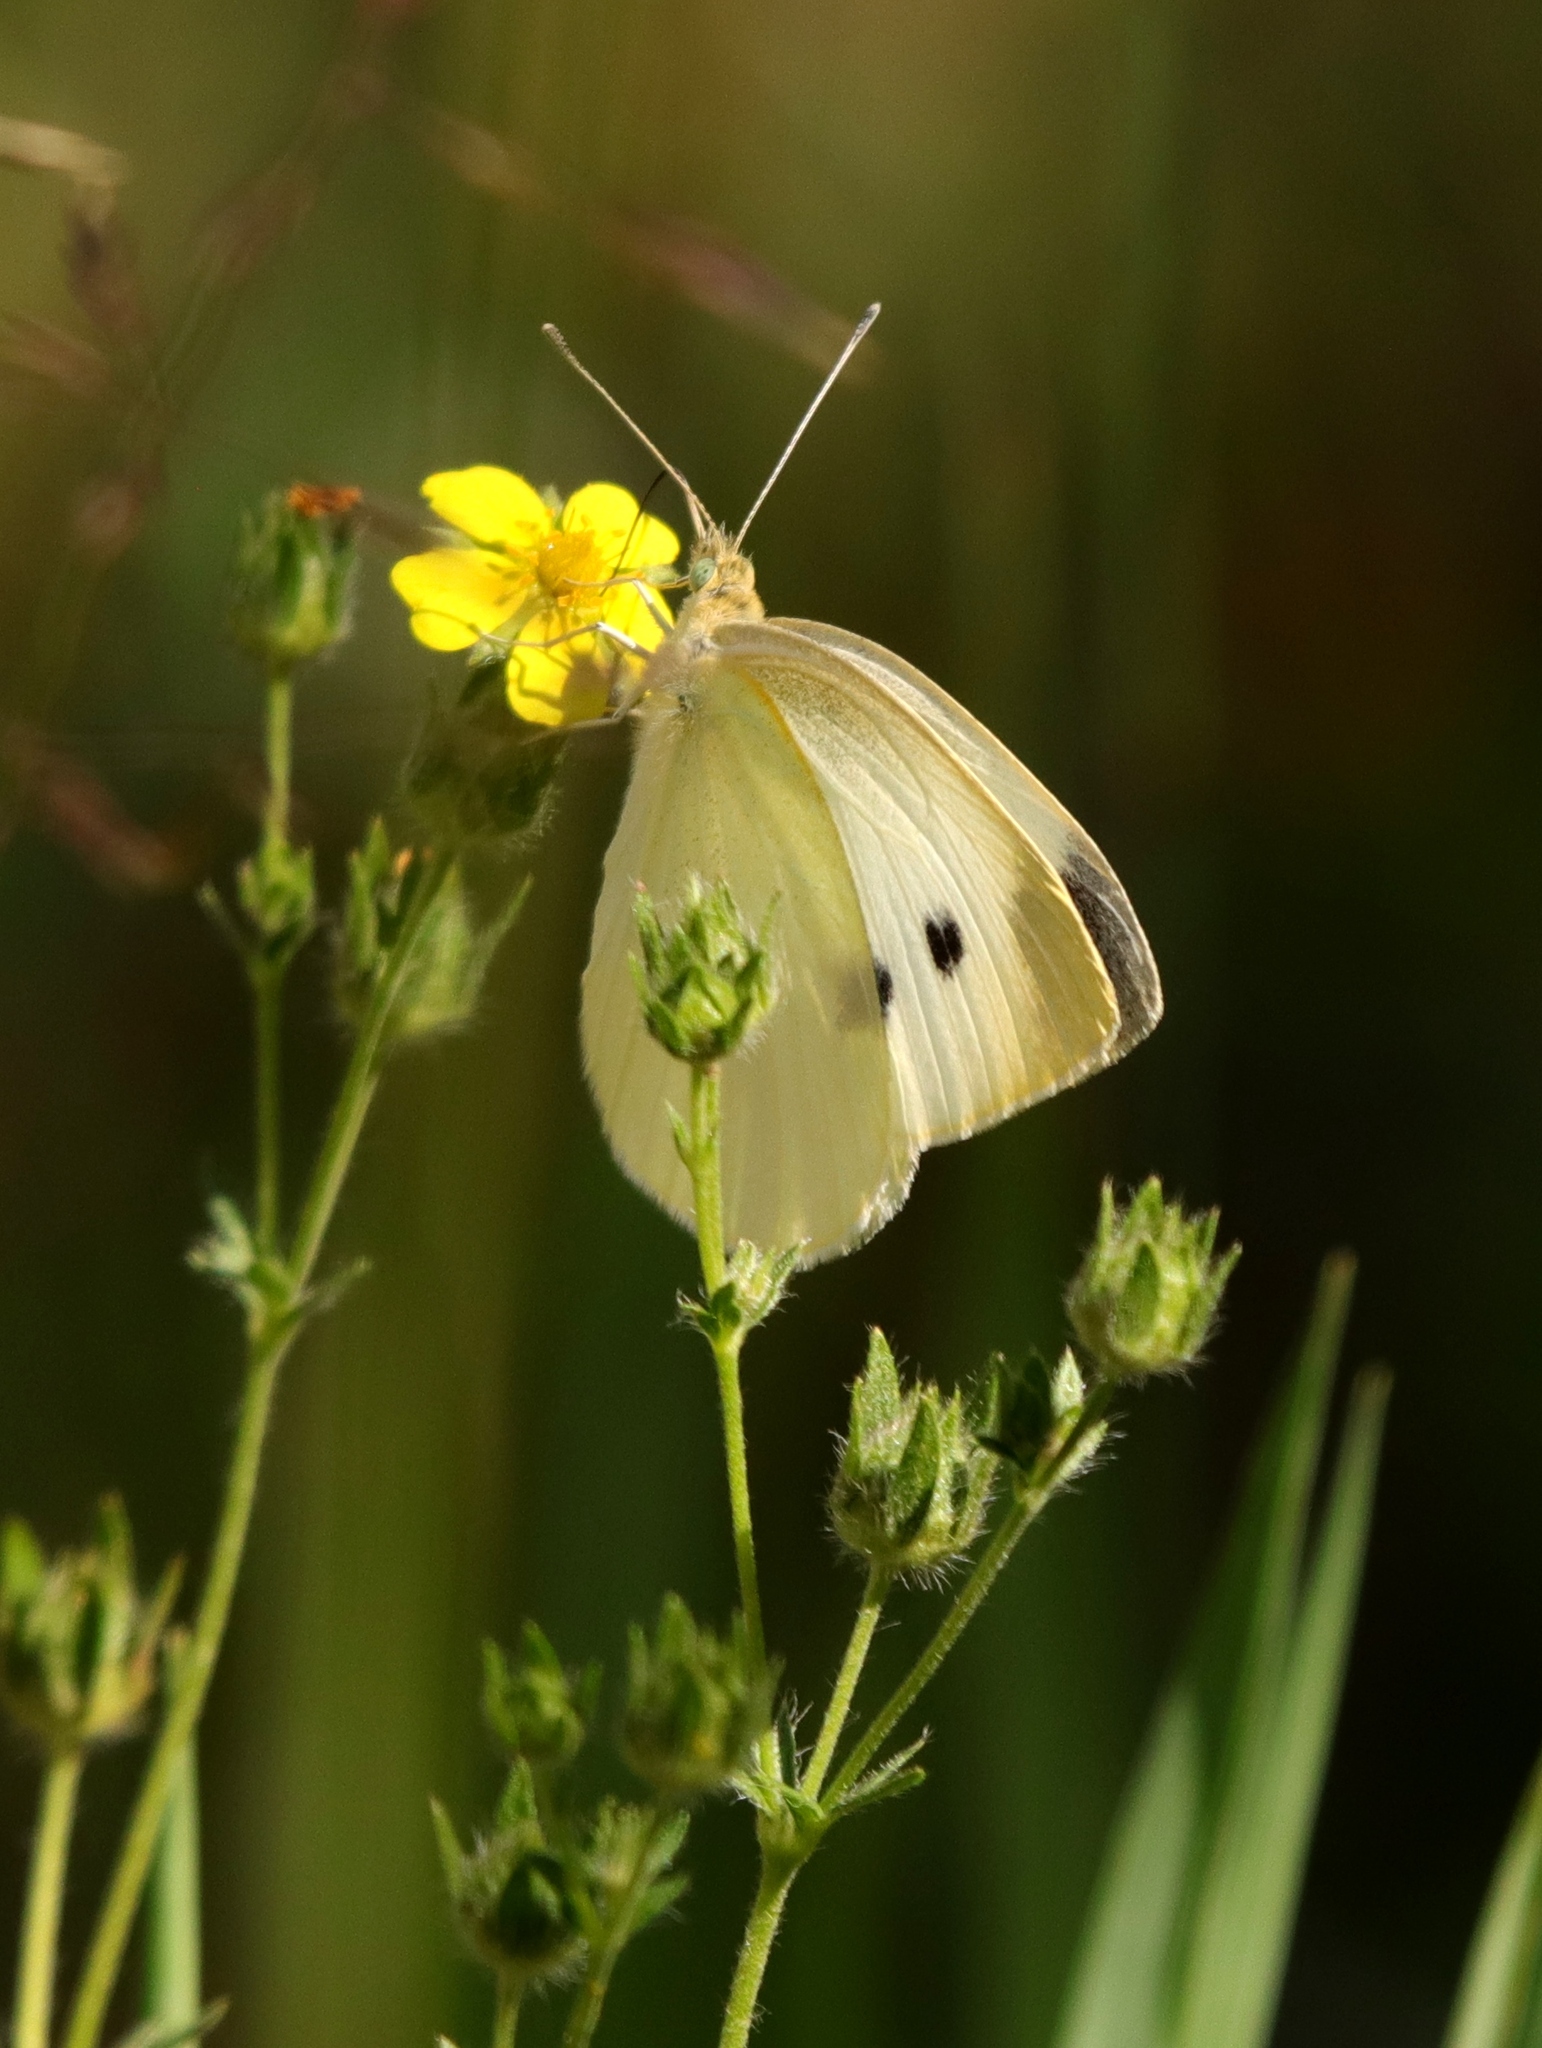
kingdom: Animalia
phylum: Arthropoda
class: Insecta
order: Lepidoptera
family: Pieridae
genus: Pieris
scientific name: Pieris rapae
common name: Small white
